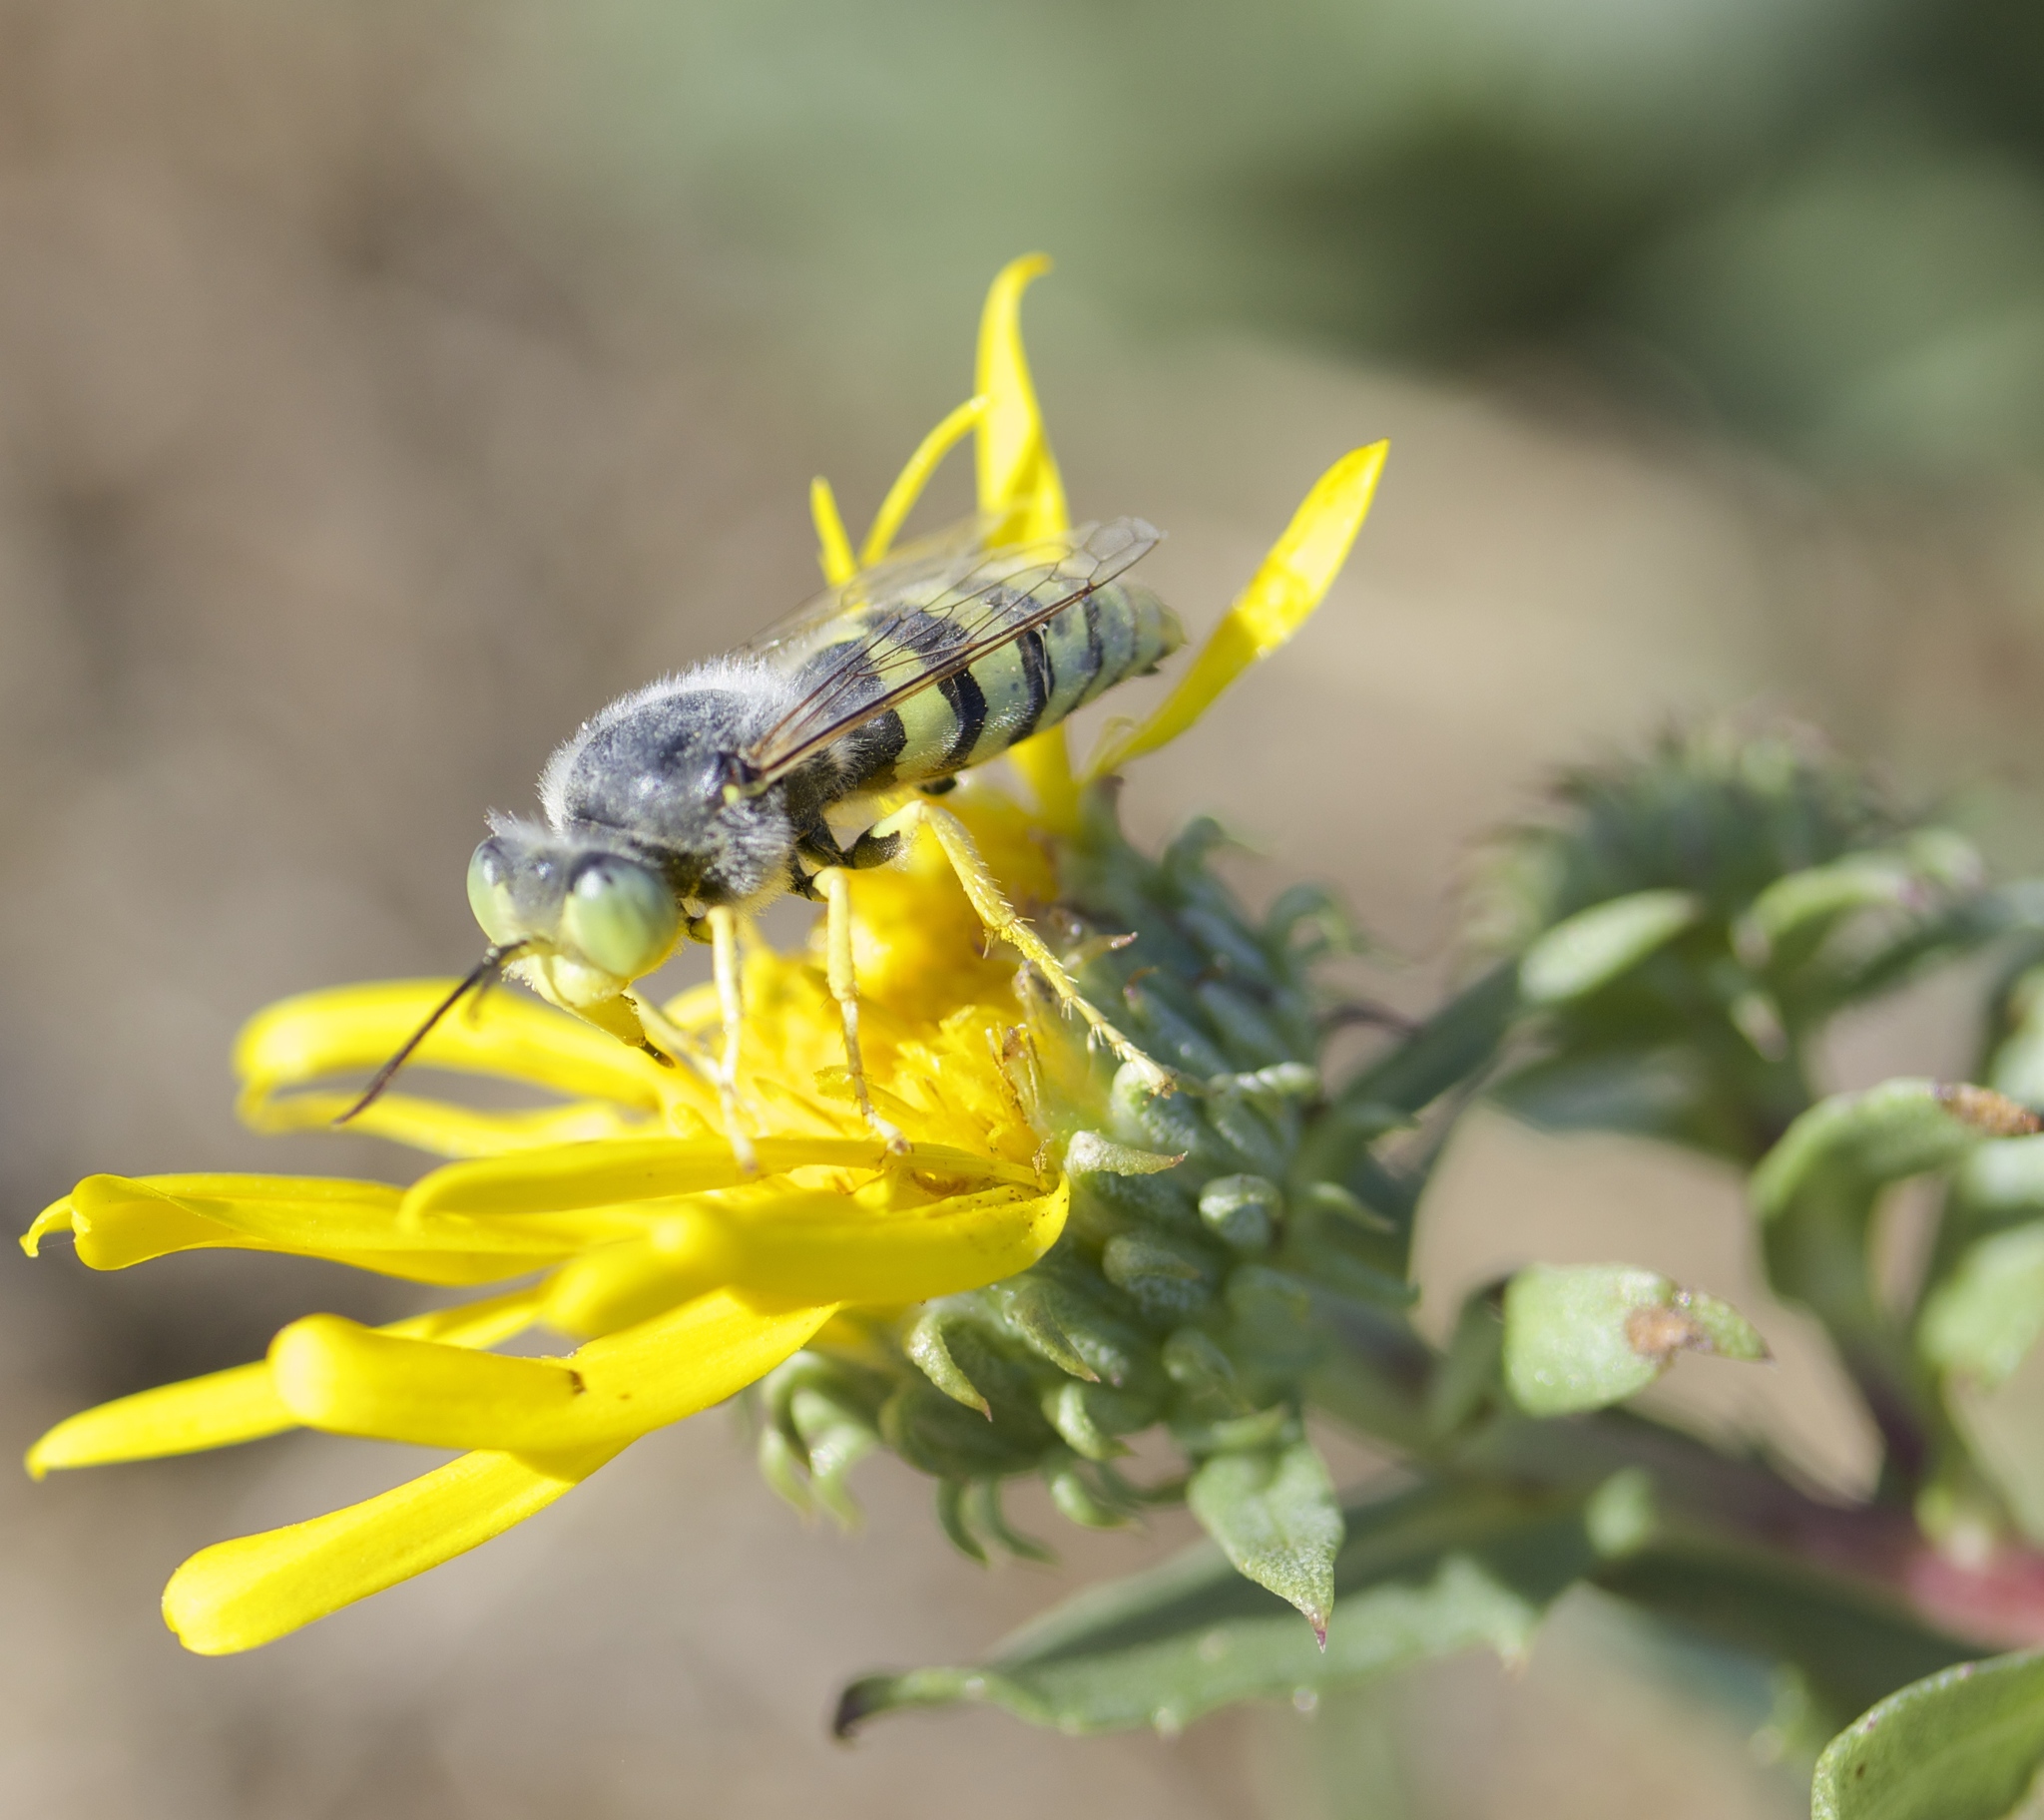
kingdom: Animalia
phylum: Arthropoda
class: Insecta
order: Hymenoptera
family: Crabronidae
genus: Bembix
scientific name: Bembix americana
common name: American sand wasp
